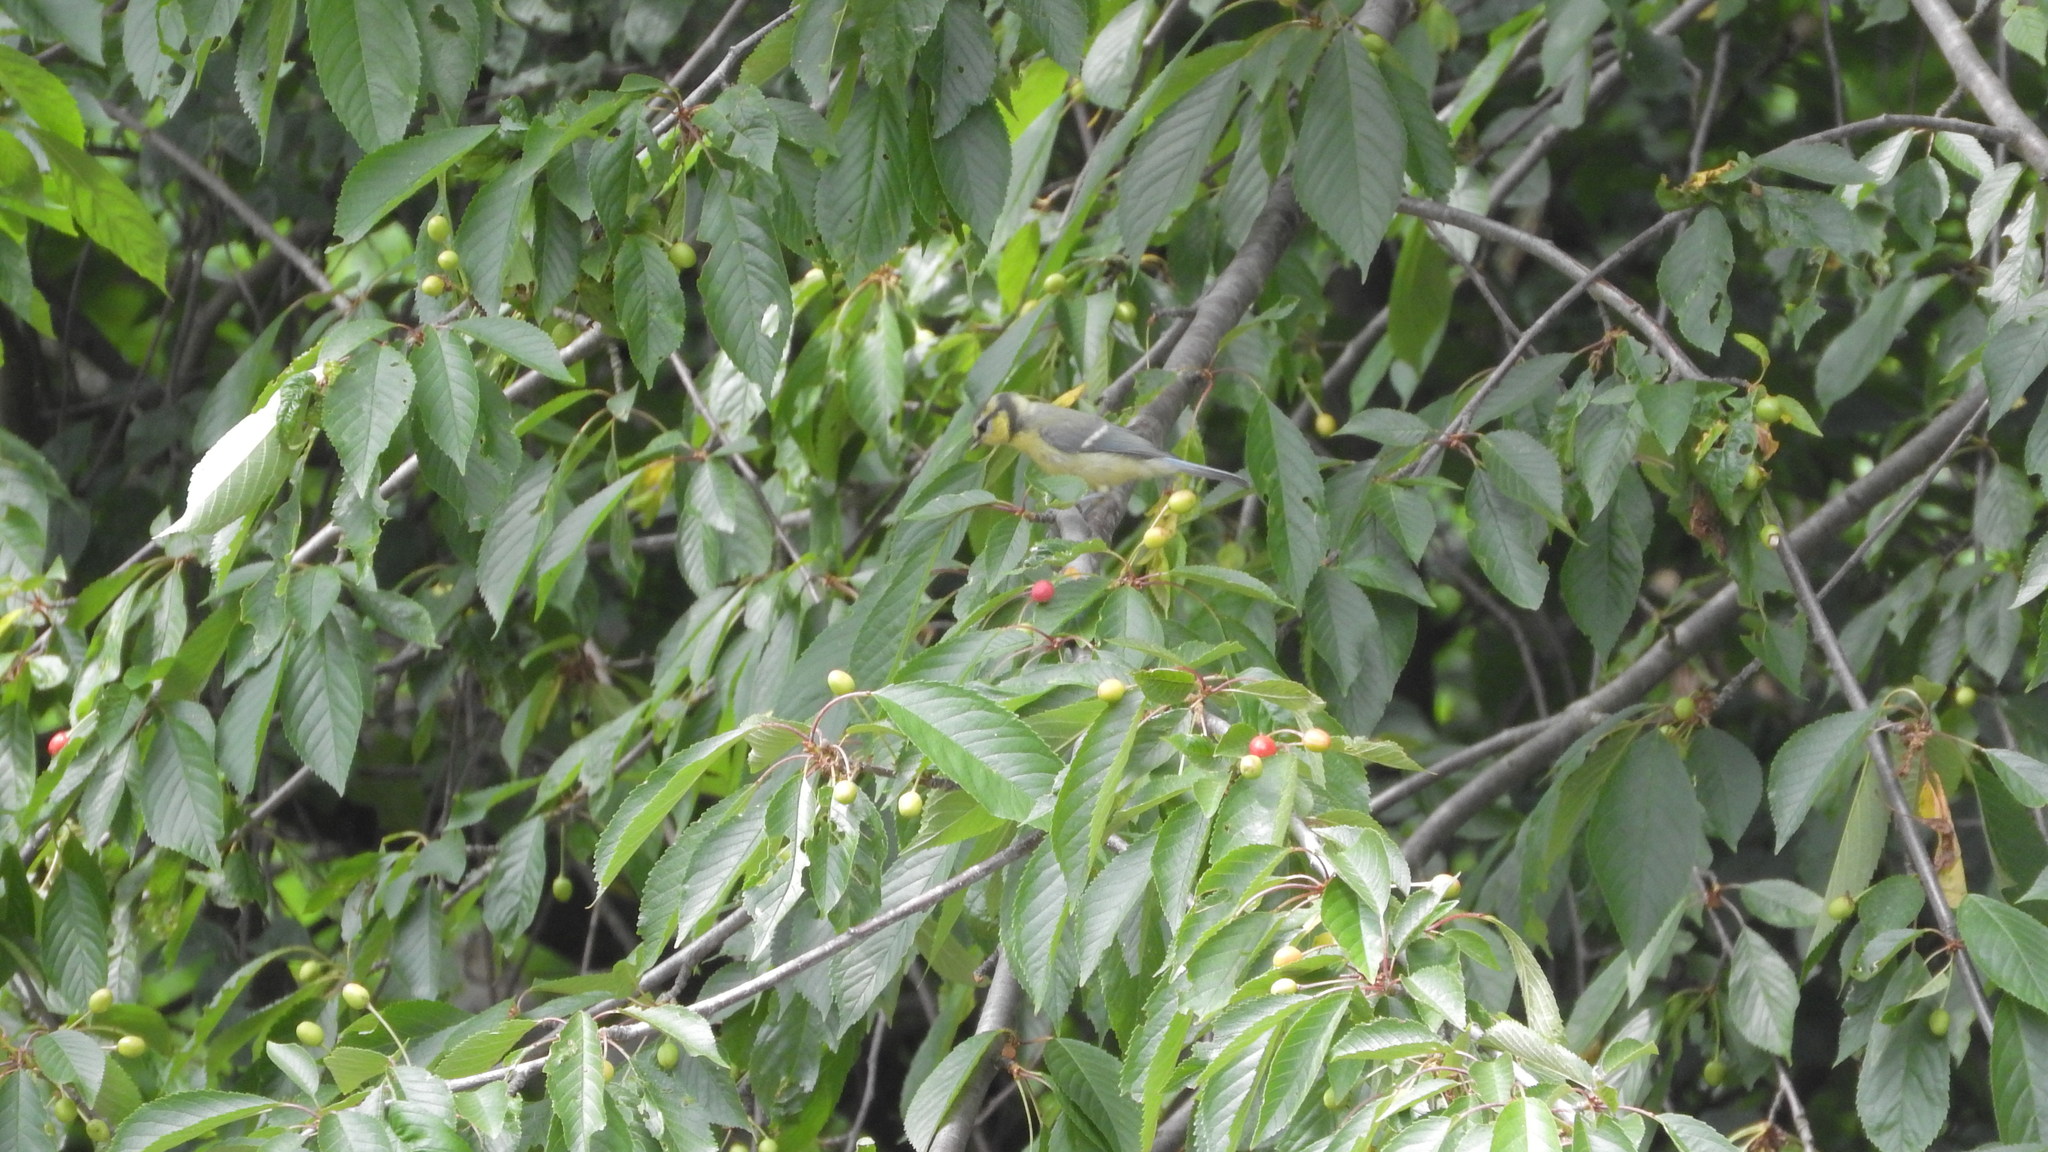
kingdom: Animalia
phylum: Chordata
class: Aves
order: Passeriformes
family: Paridae
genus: Cyanistes
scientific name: Cyanistes caeruleus
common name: Eurasian blue tit
